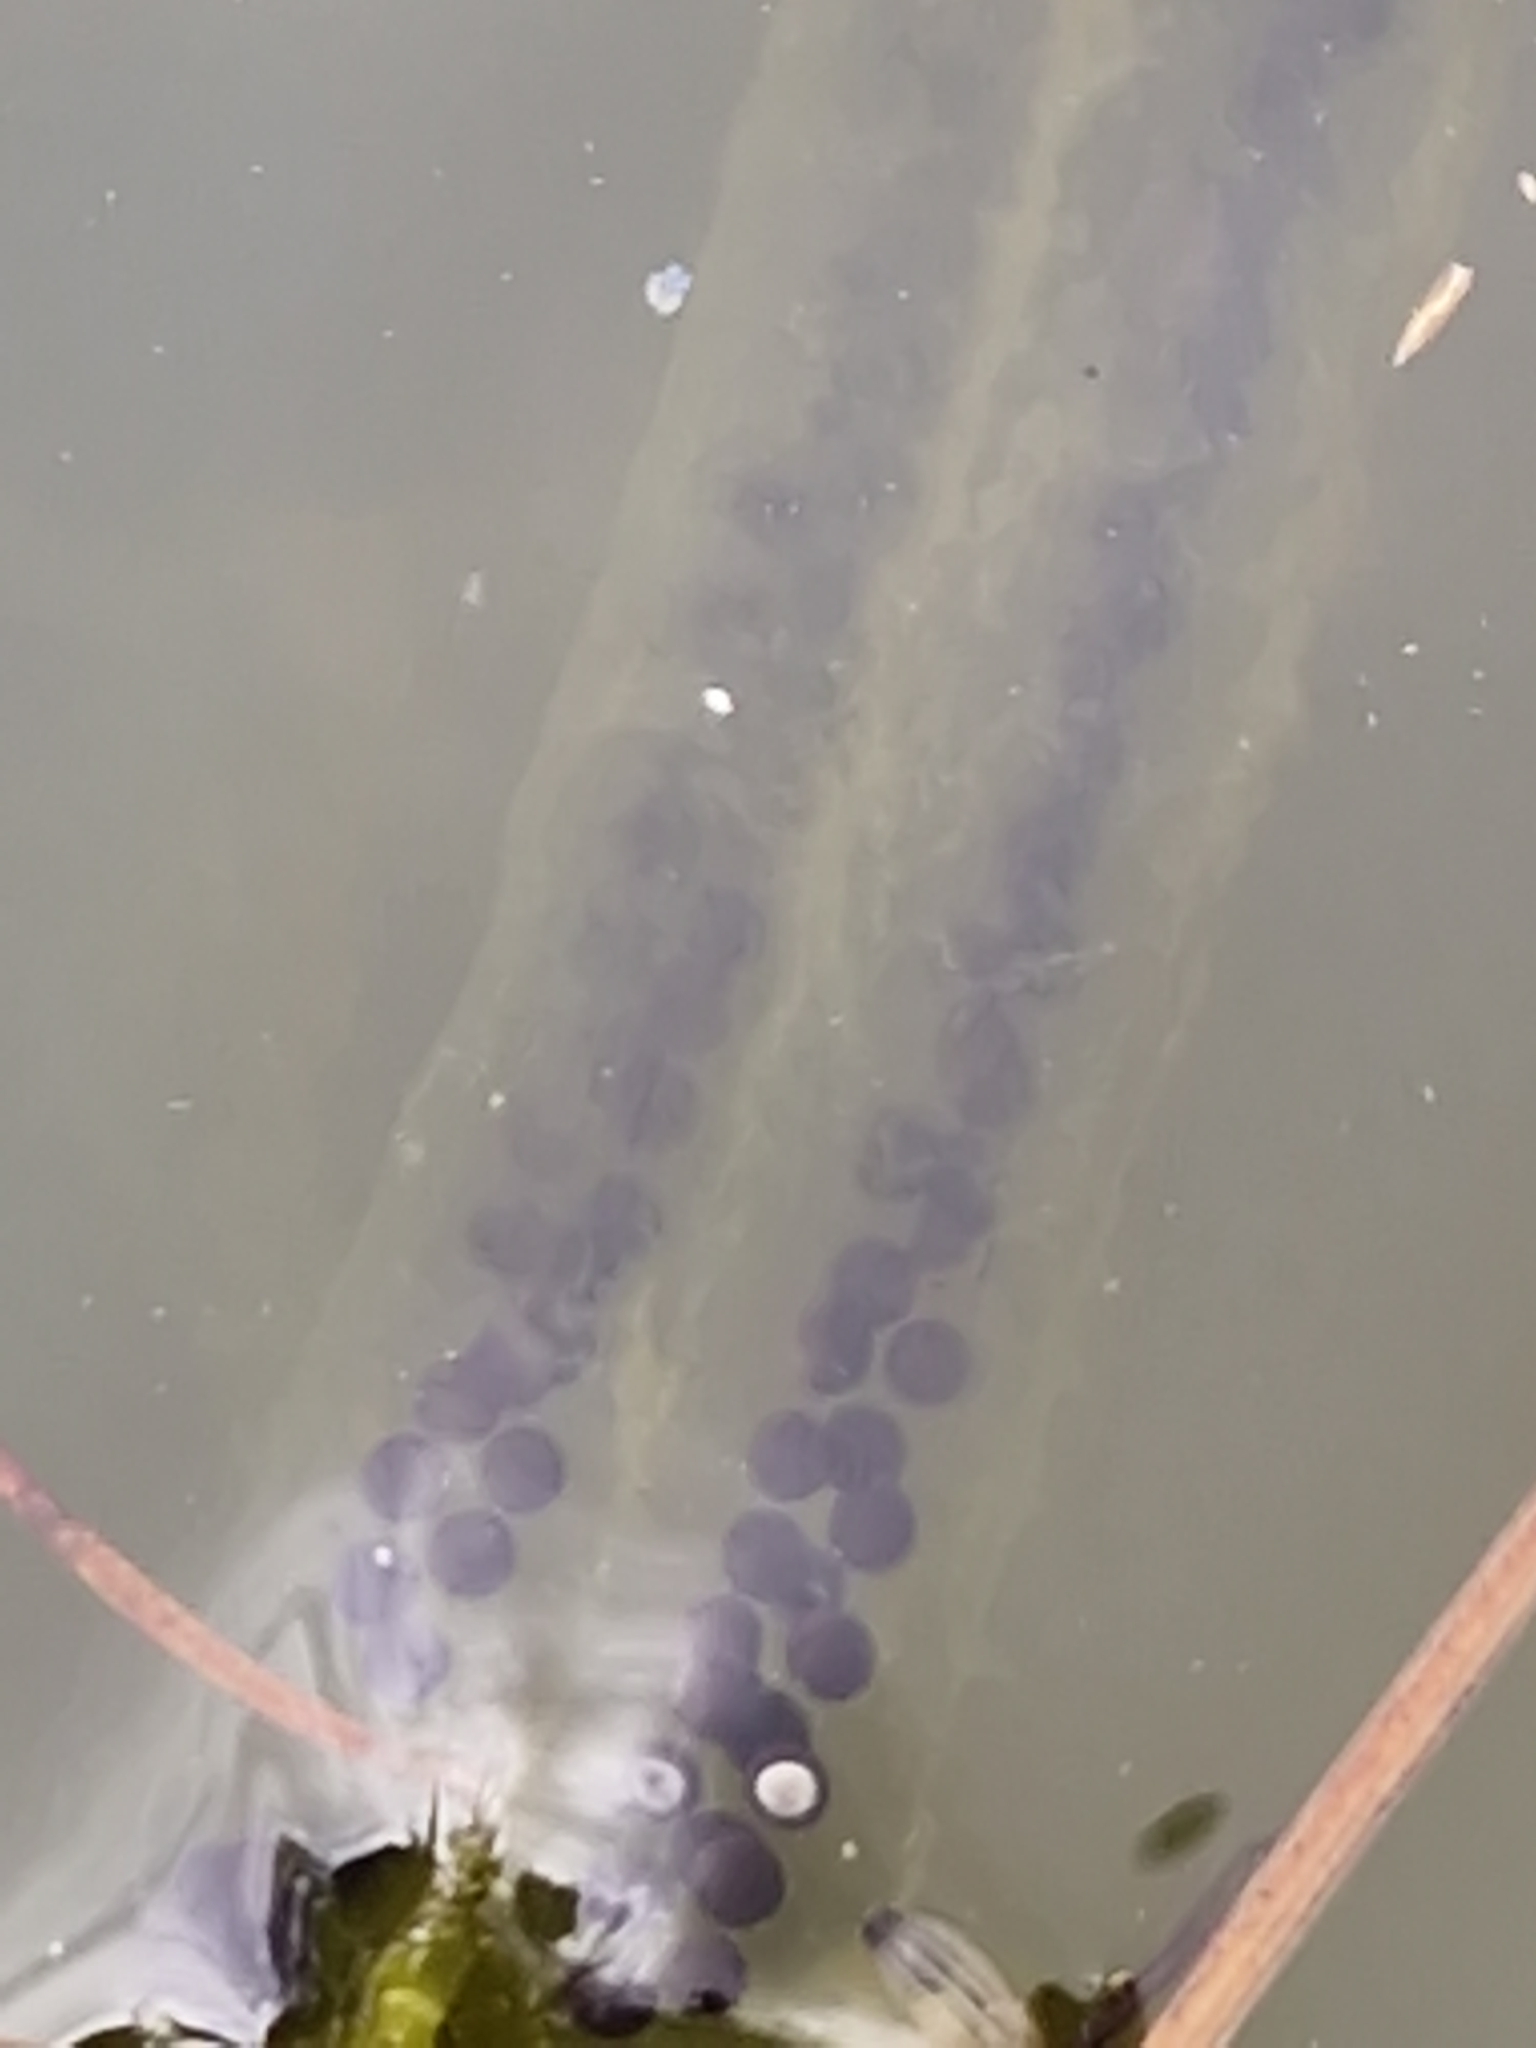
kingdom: Animalia
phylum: Chordata
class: Amphibia
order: Anura
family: Bufonidae
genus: Bufo
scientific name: Bufo bufo
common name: Common toad
